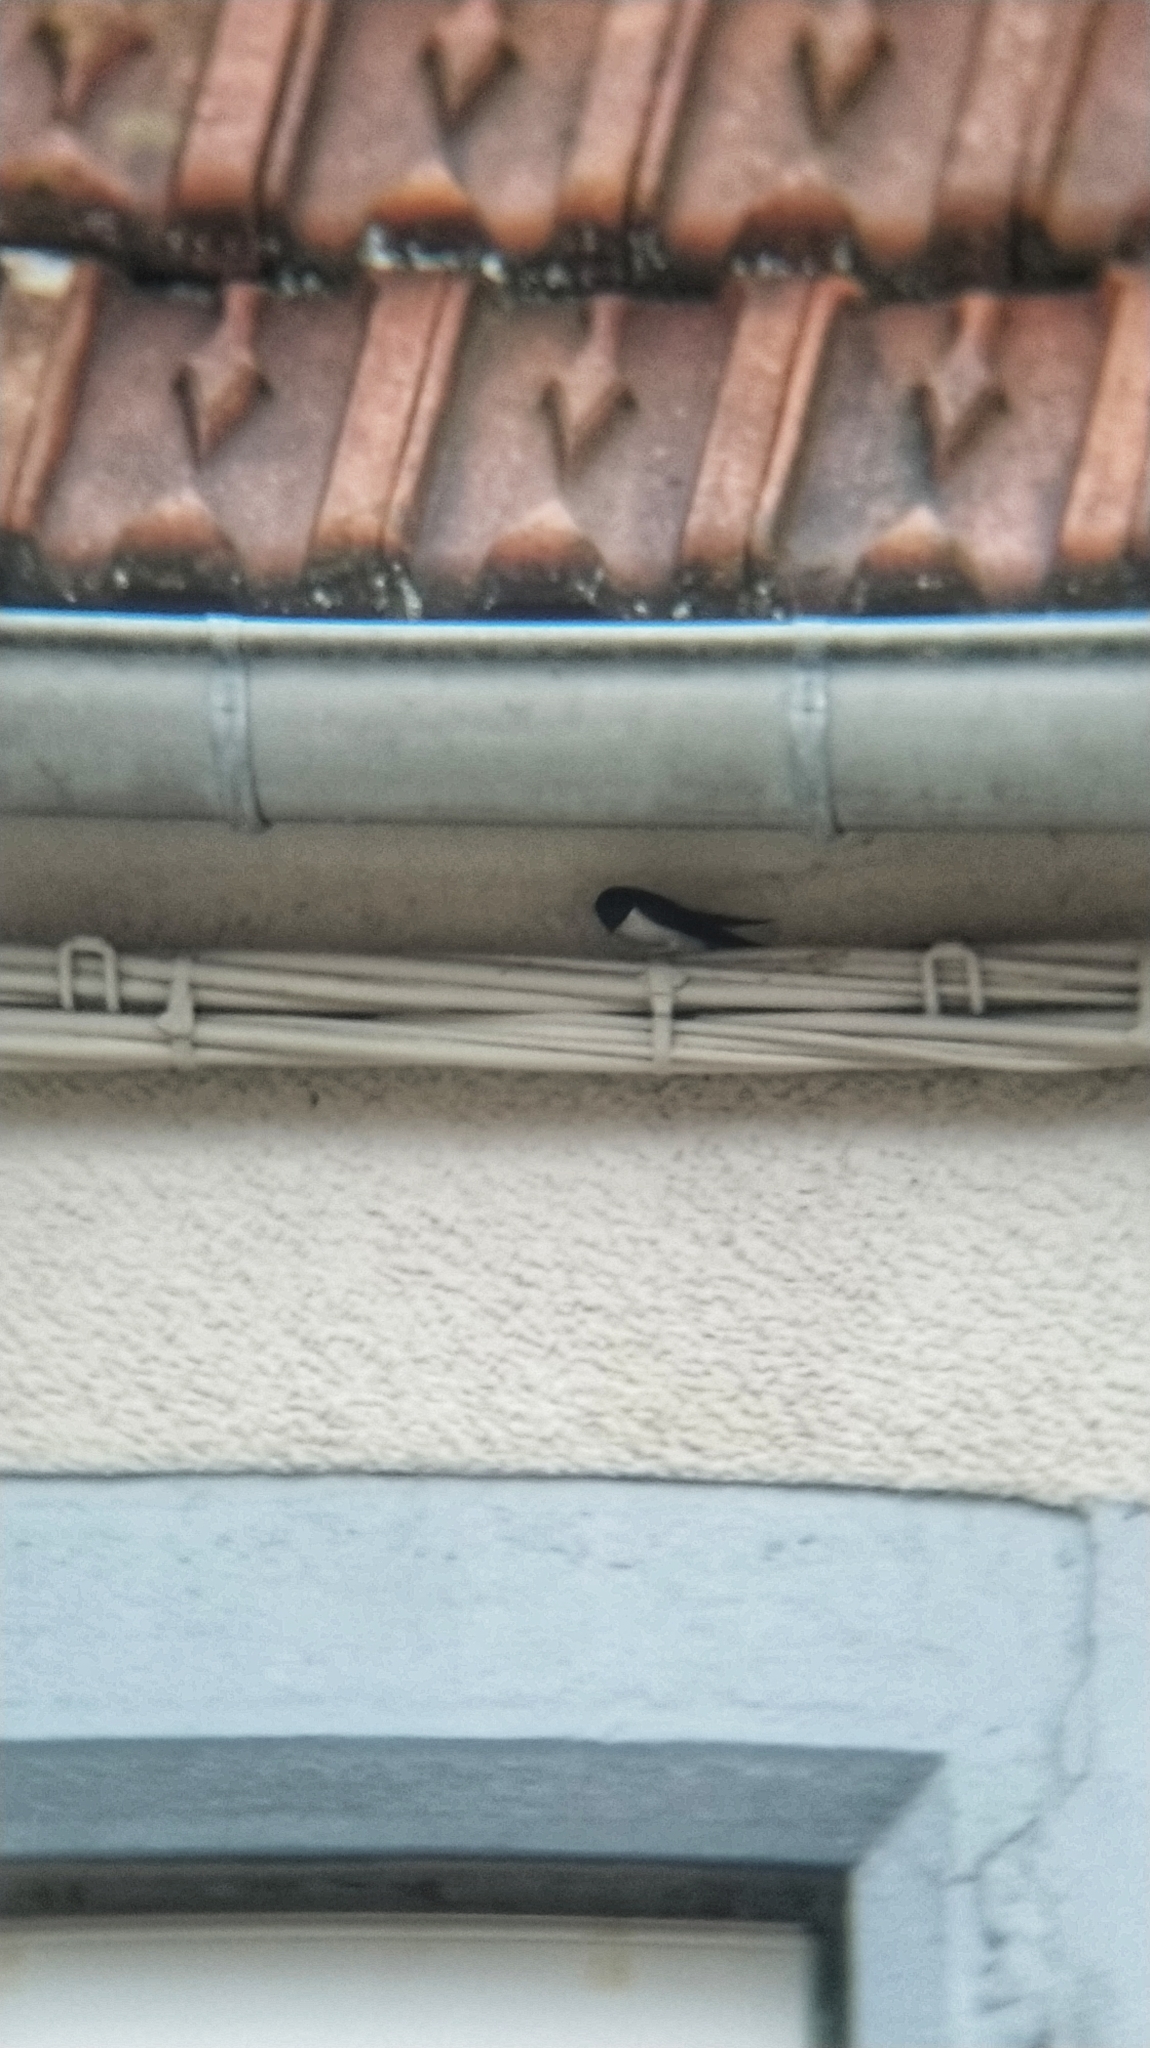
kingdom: Animalia
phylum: Chordata
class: Aves
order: Passeriformes
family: Hirundinidae
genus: Delichon
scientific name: Delichon urbicum
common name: Common house martin
